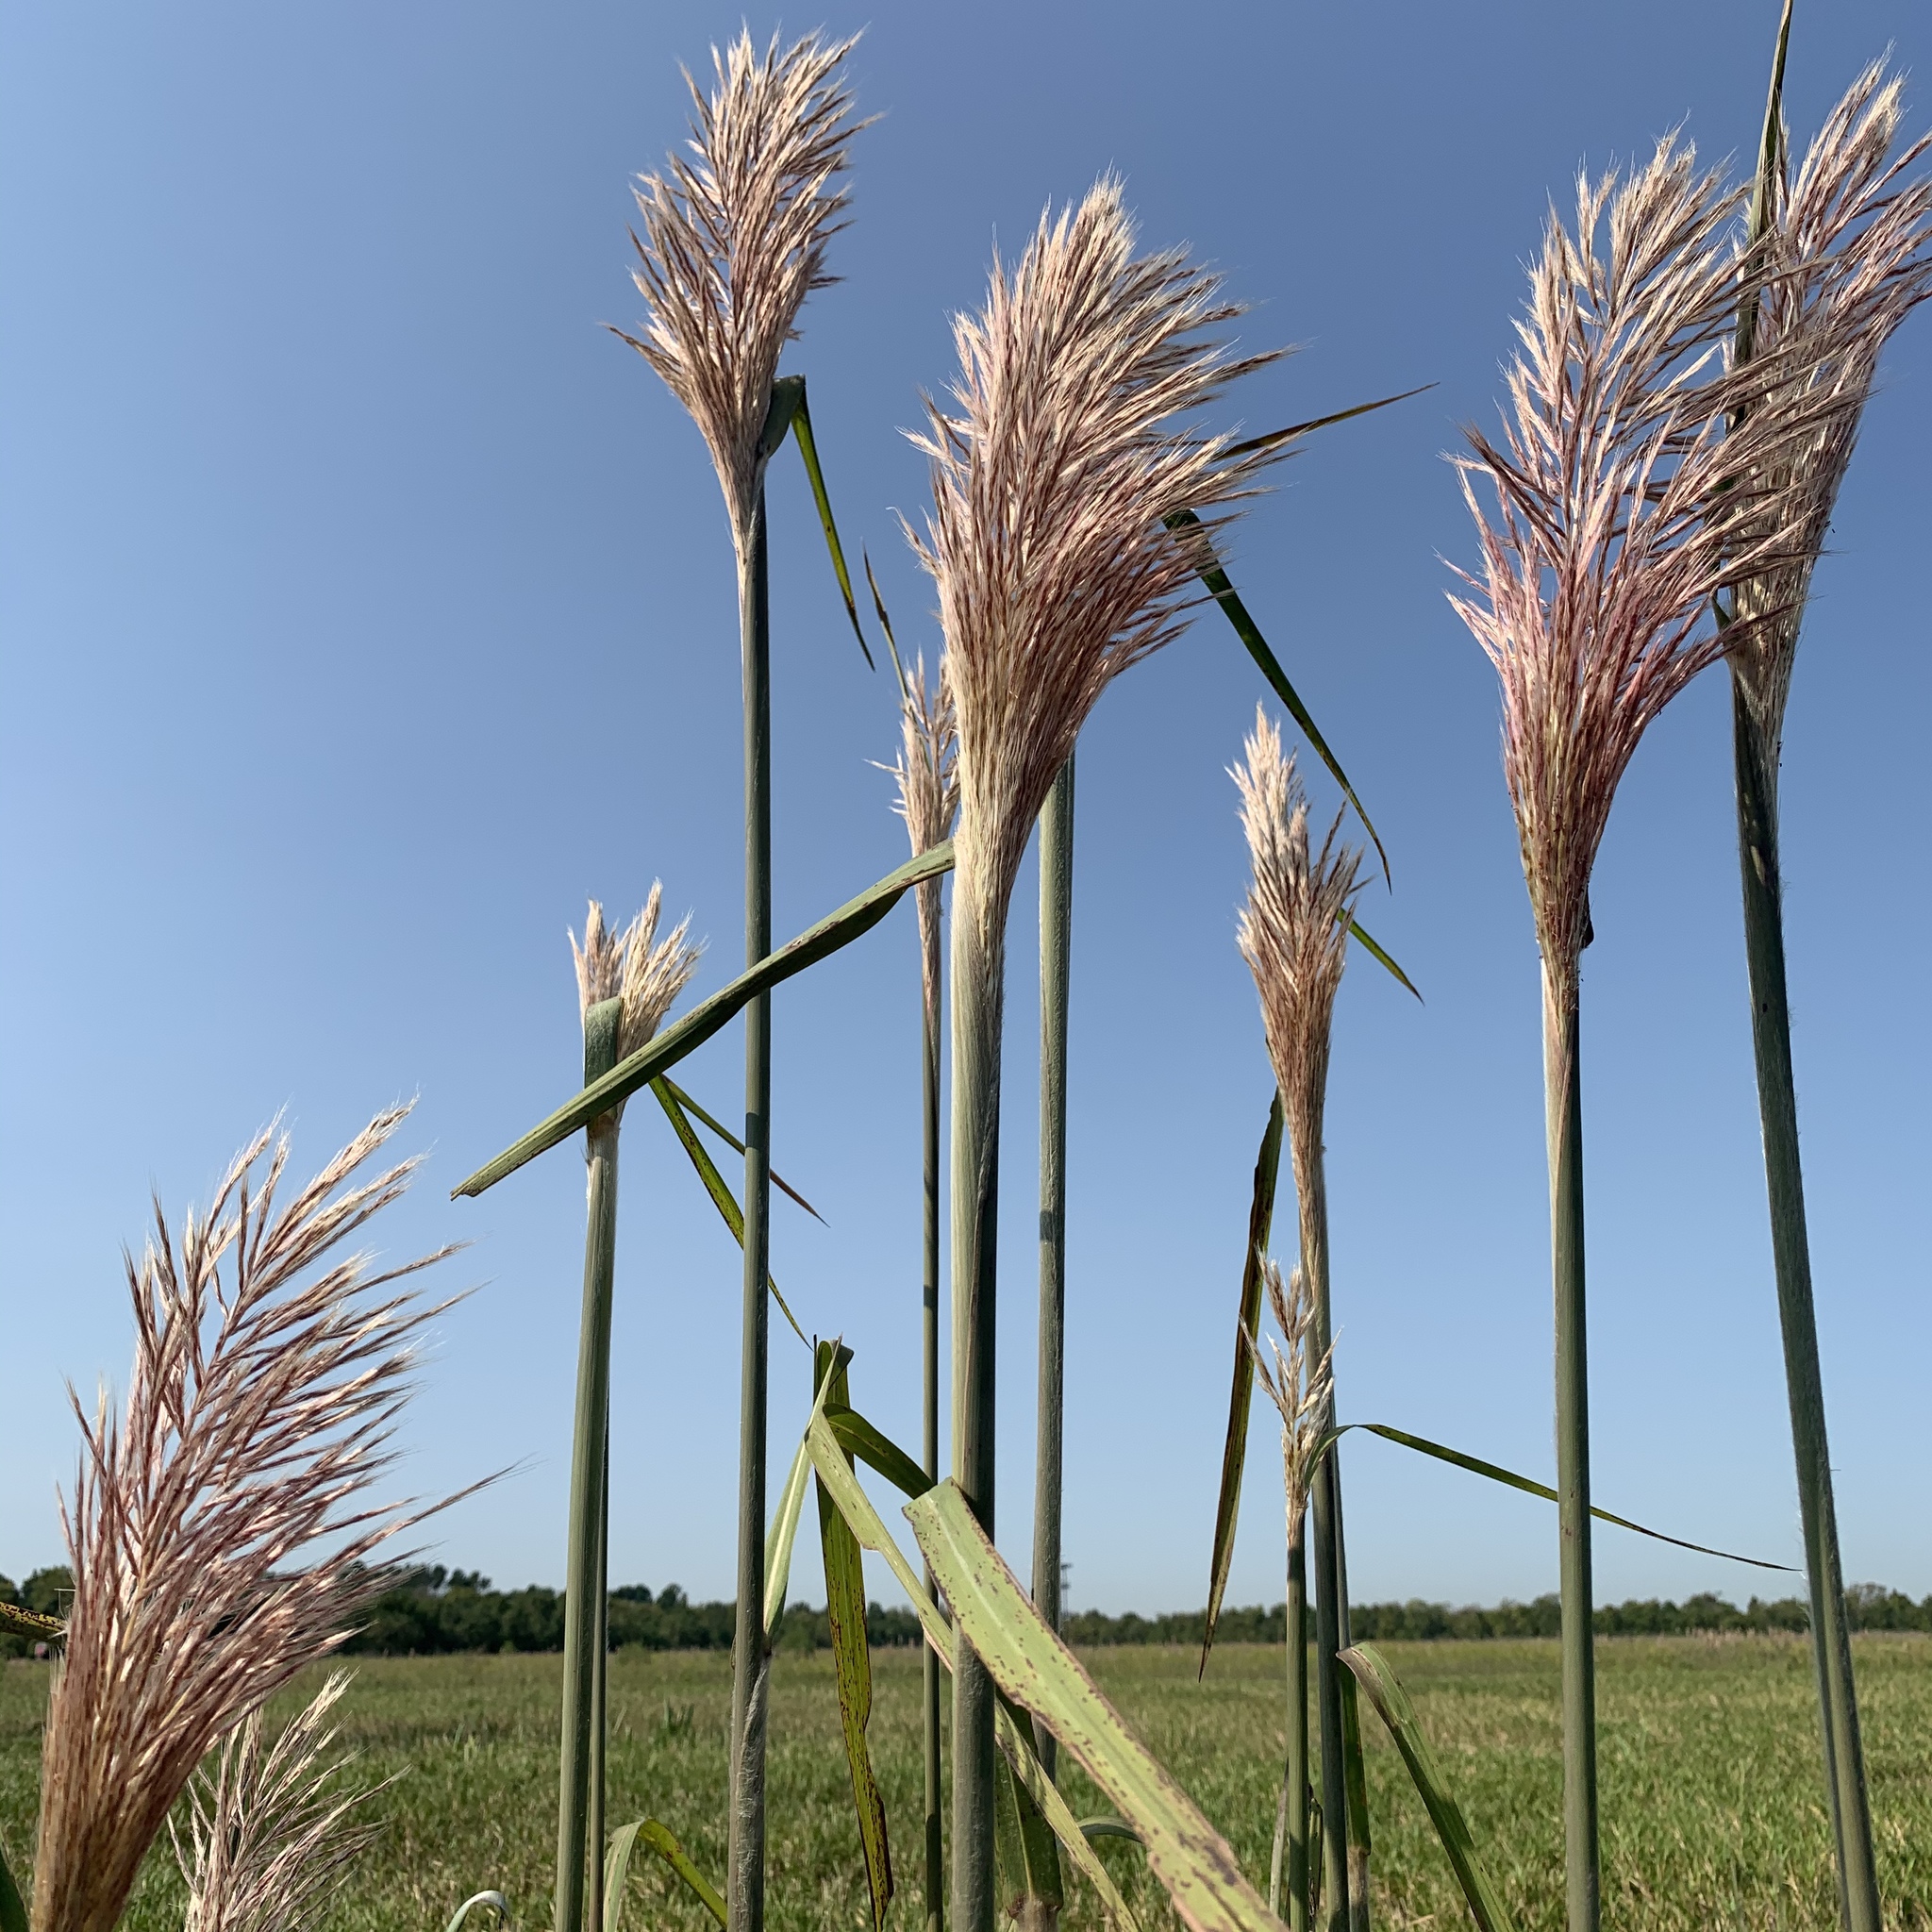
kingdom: Plantae
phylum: Tracheophyta
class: Liliopsida
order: Poales
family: Poaceae
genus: Erianthus
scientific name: Erianthus giganteus
